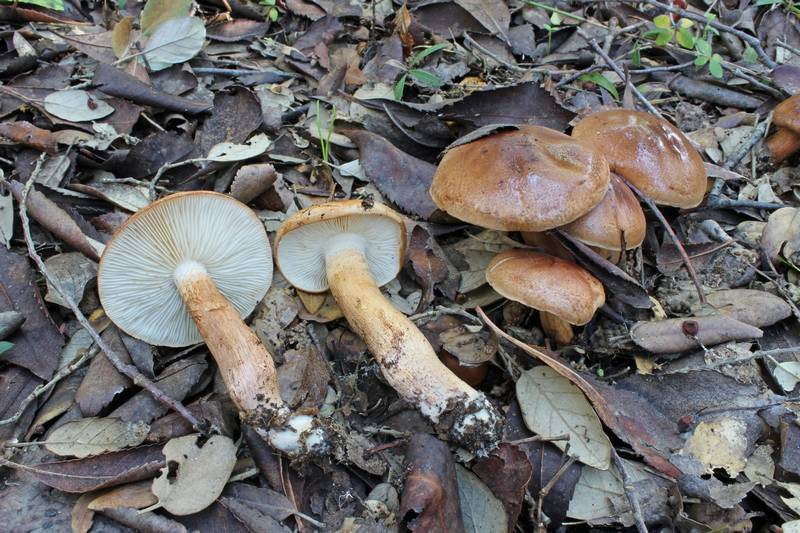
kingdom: Fungi
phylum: Basidiomycota
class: Agaricomycetes
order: Agaricales
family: Tricholomataceae
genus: Tricholoma
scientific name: Tricholoma ustaloides
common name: Charred knight
